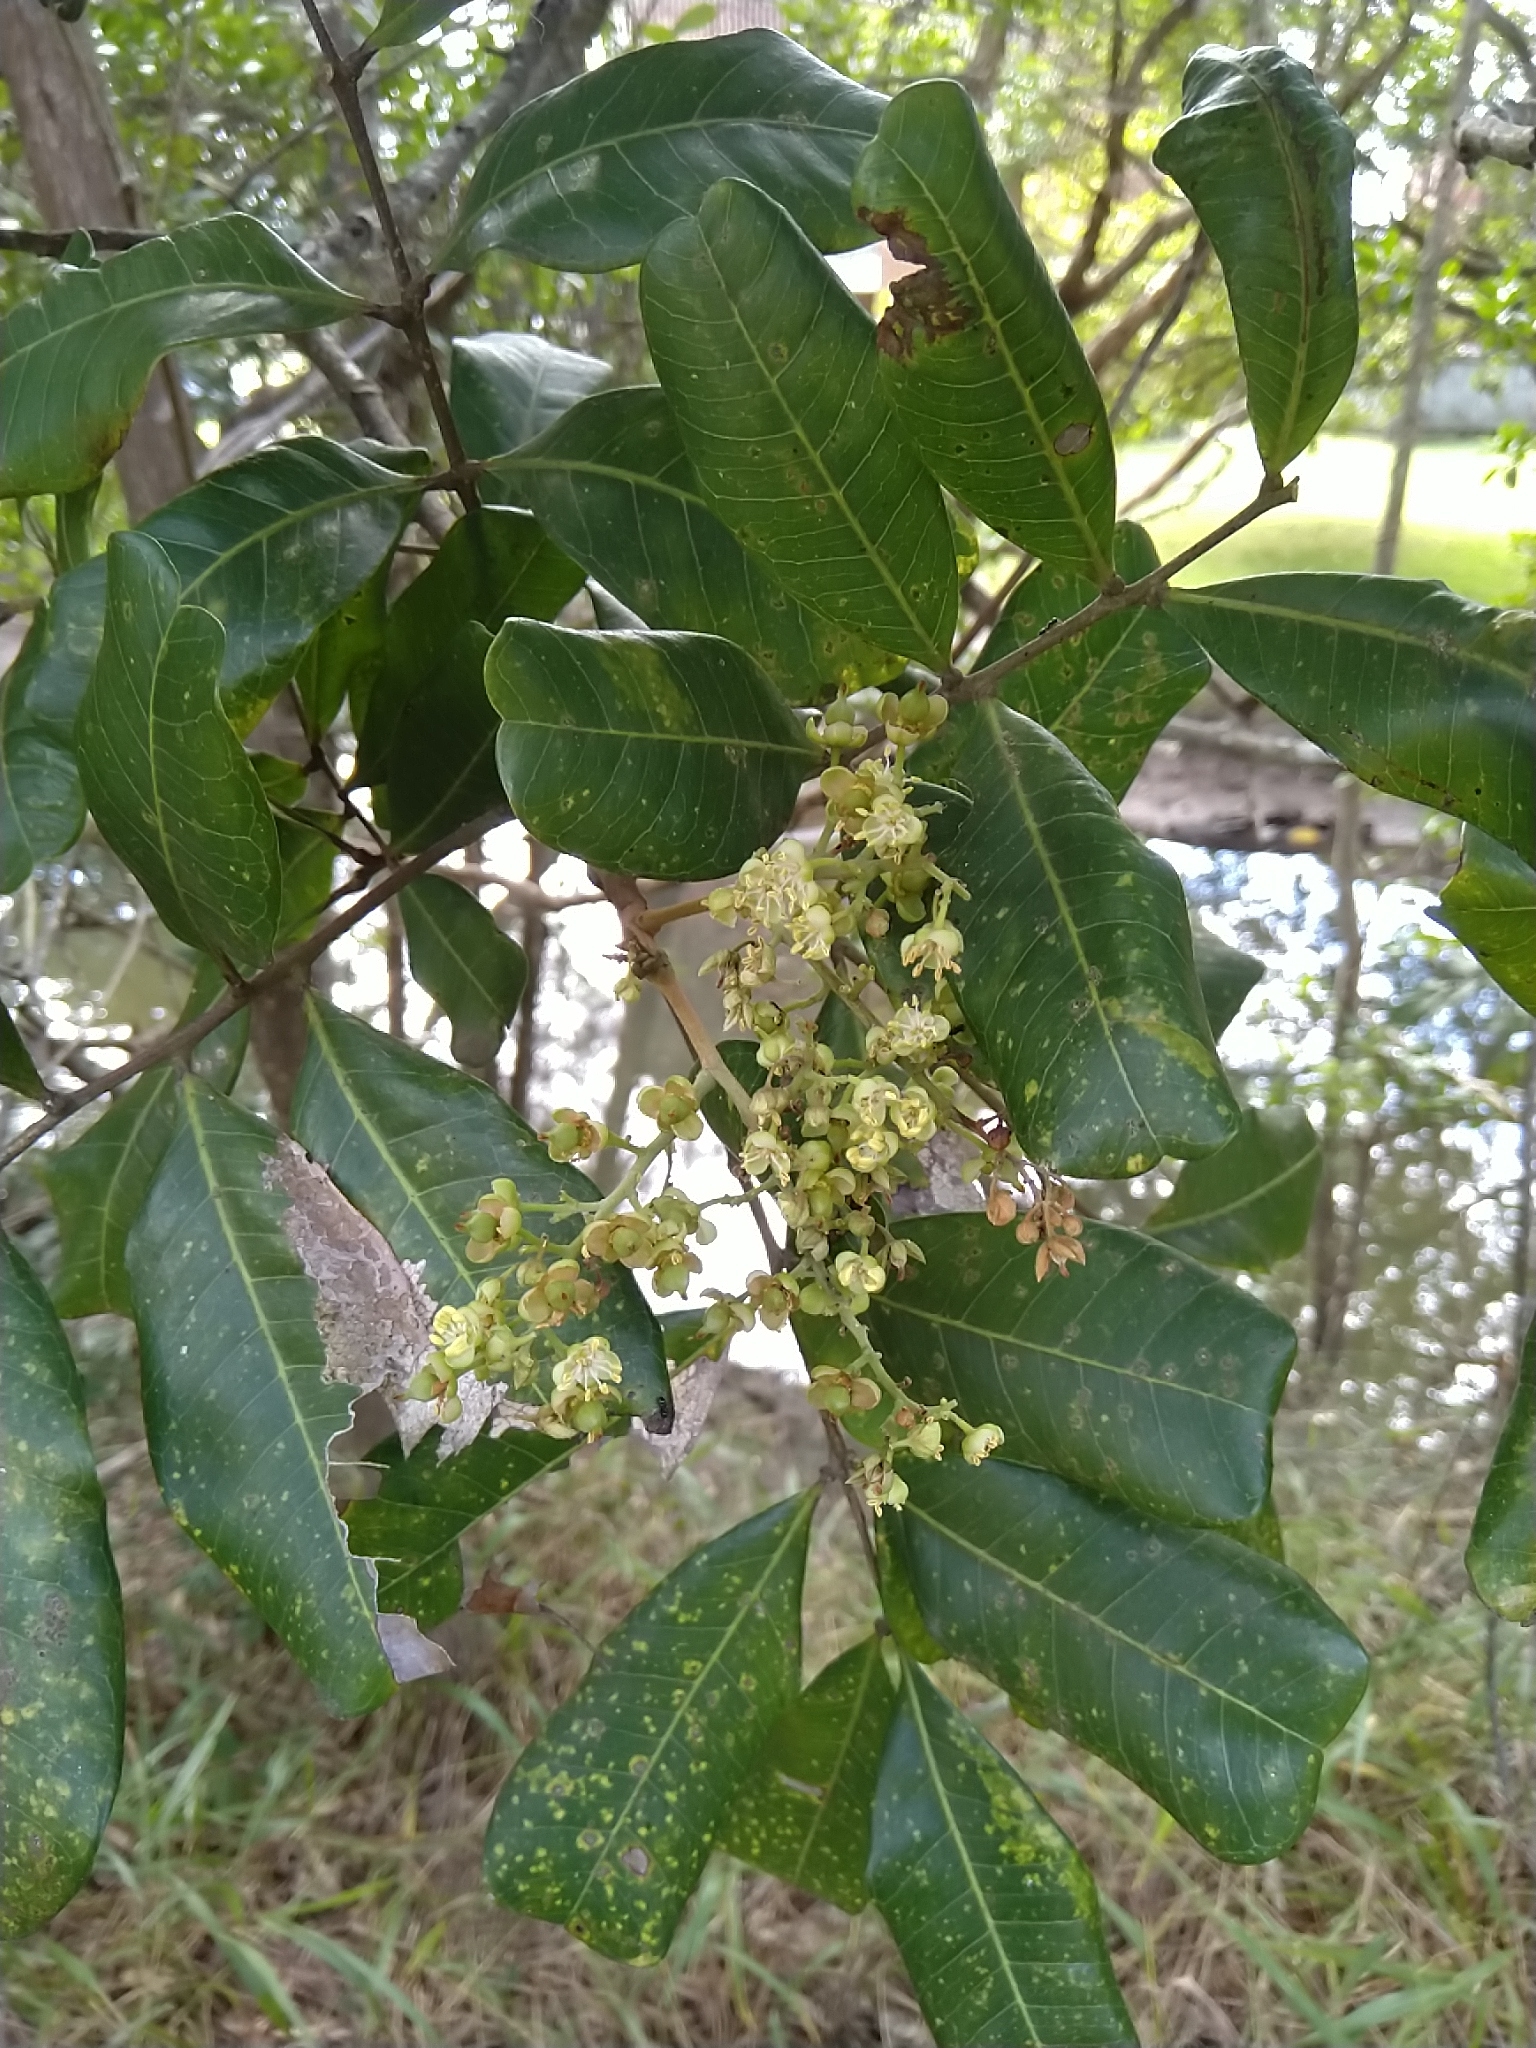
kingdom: Plantae
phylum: Tracheophyta
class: Magnoliopsida
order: Sapindales
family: Sapindaceae
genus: Cupaniopsis
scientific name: Cupaniopsis anacardioides
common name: Carrotwood
